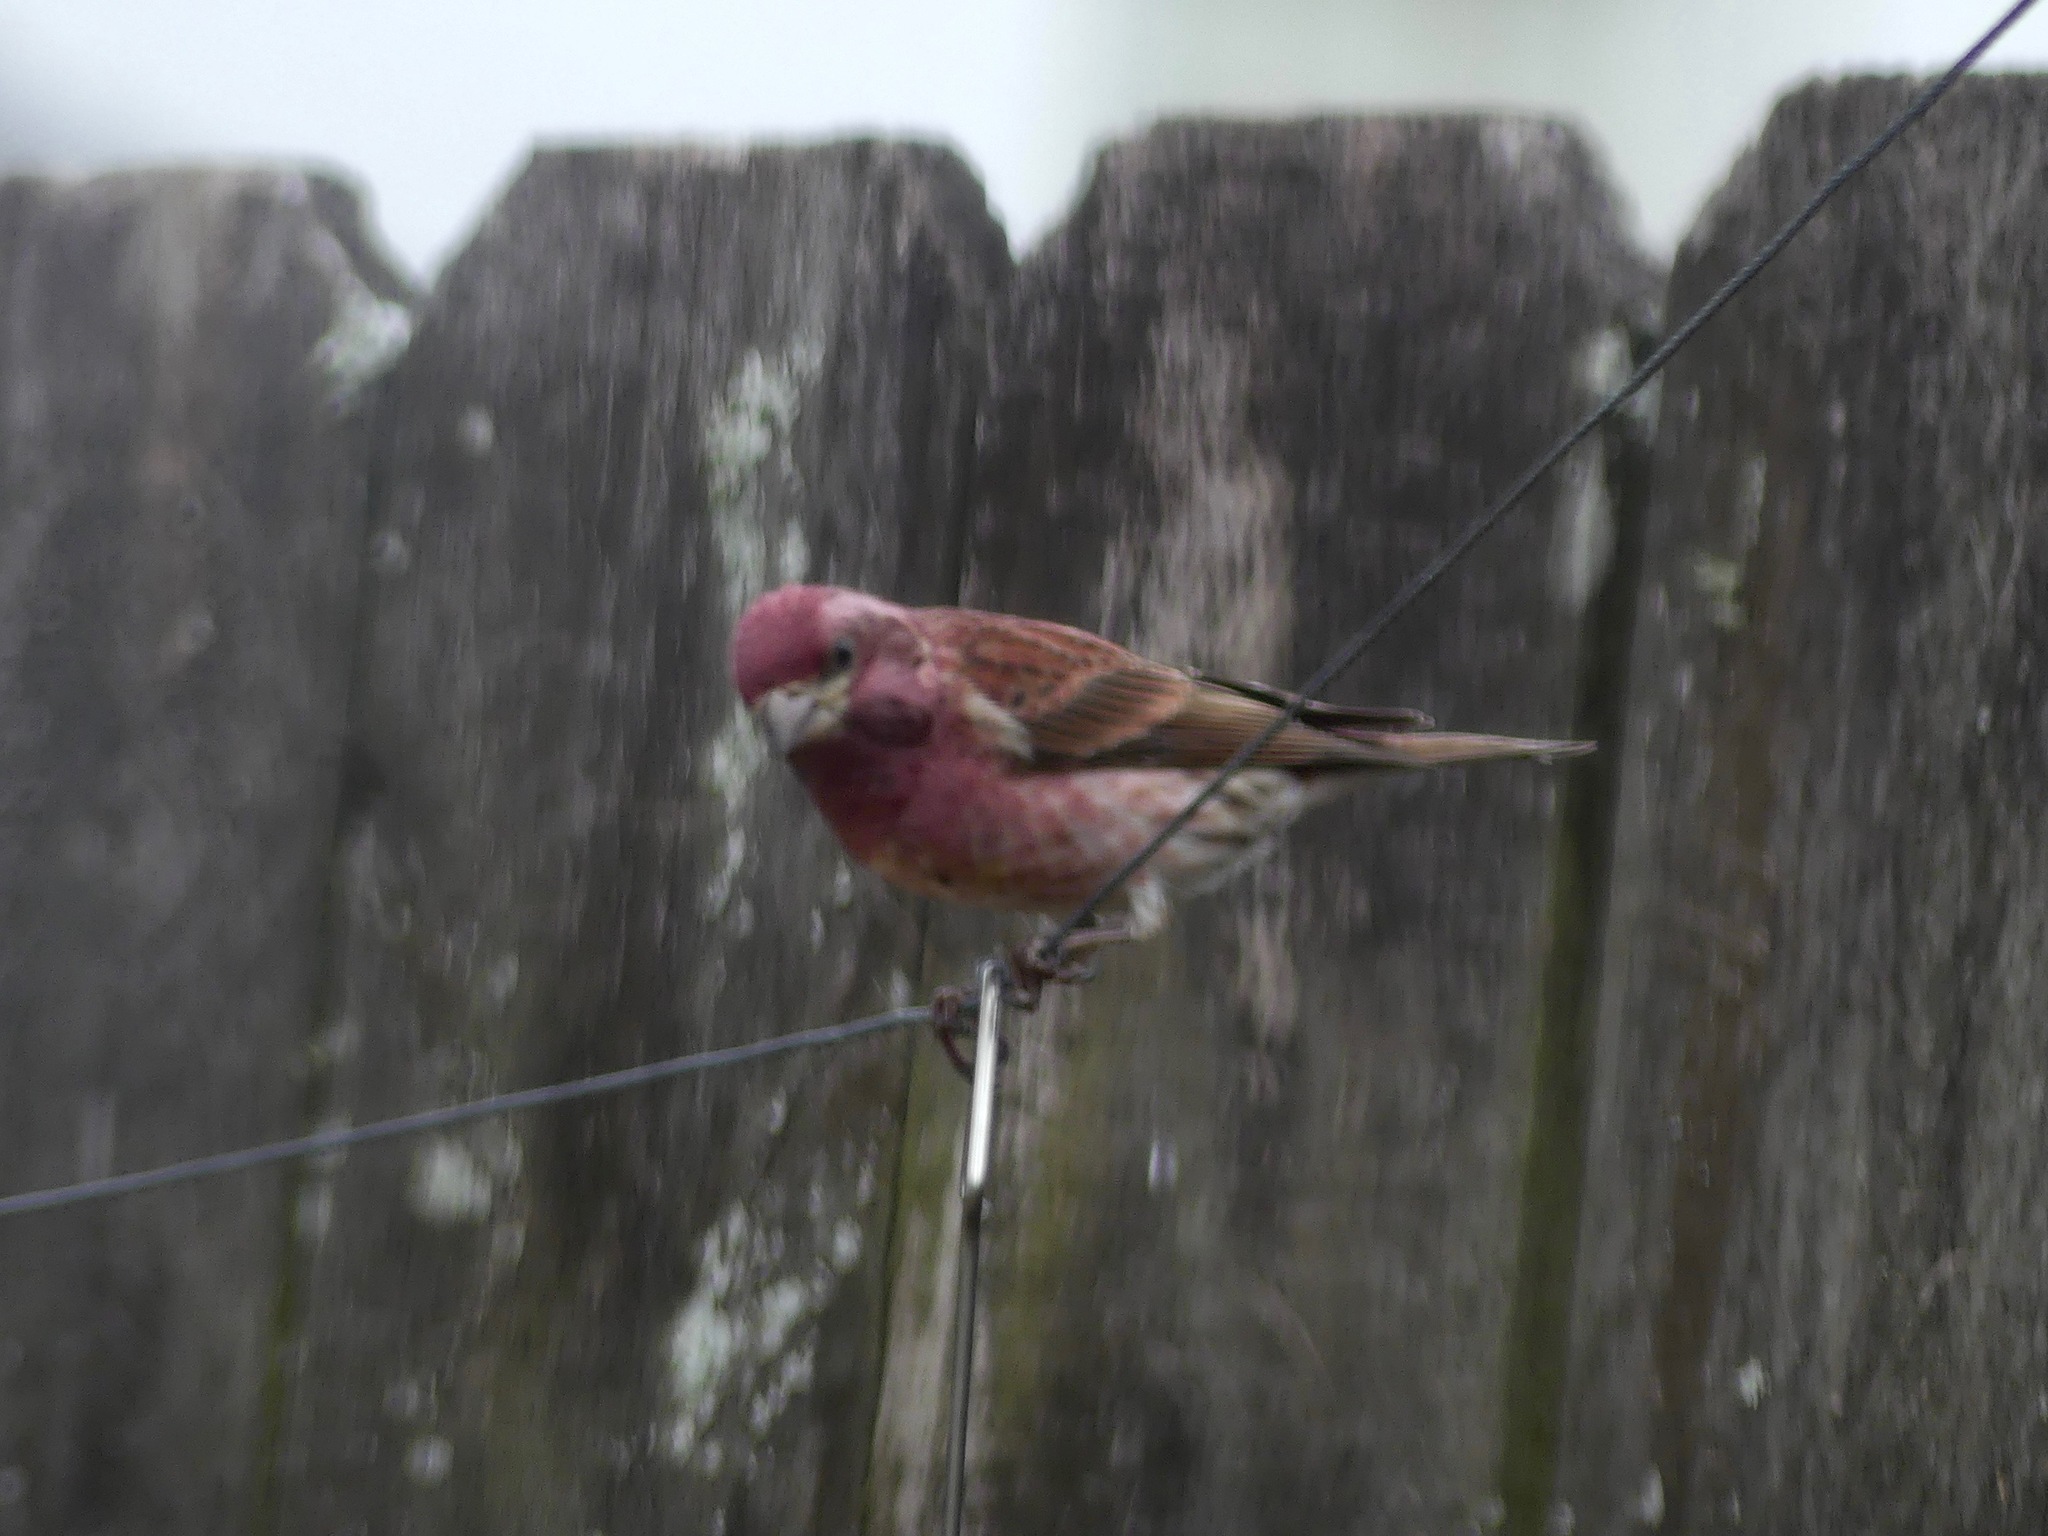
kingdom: Animalia
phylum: Chordata
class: Aves
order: Passeriformes
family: Fringillidae
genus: Haemorhous
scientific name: Haemorhous purpureus
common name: Purple finch
